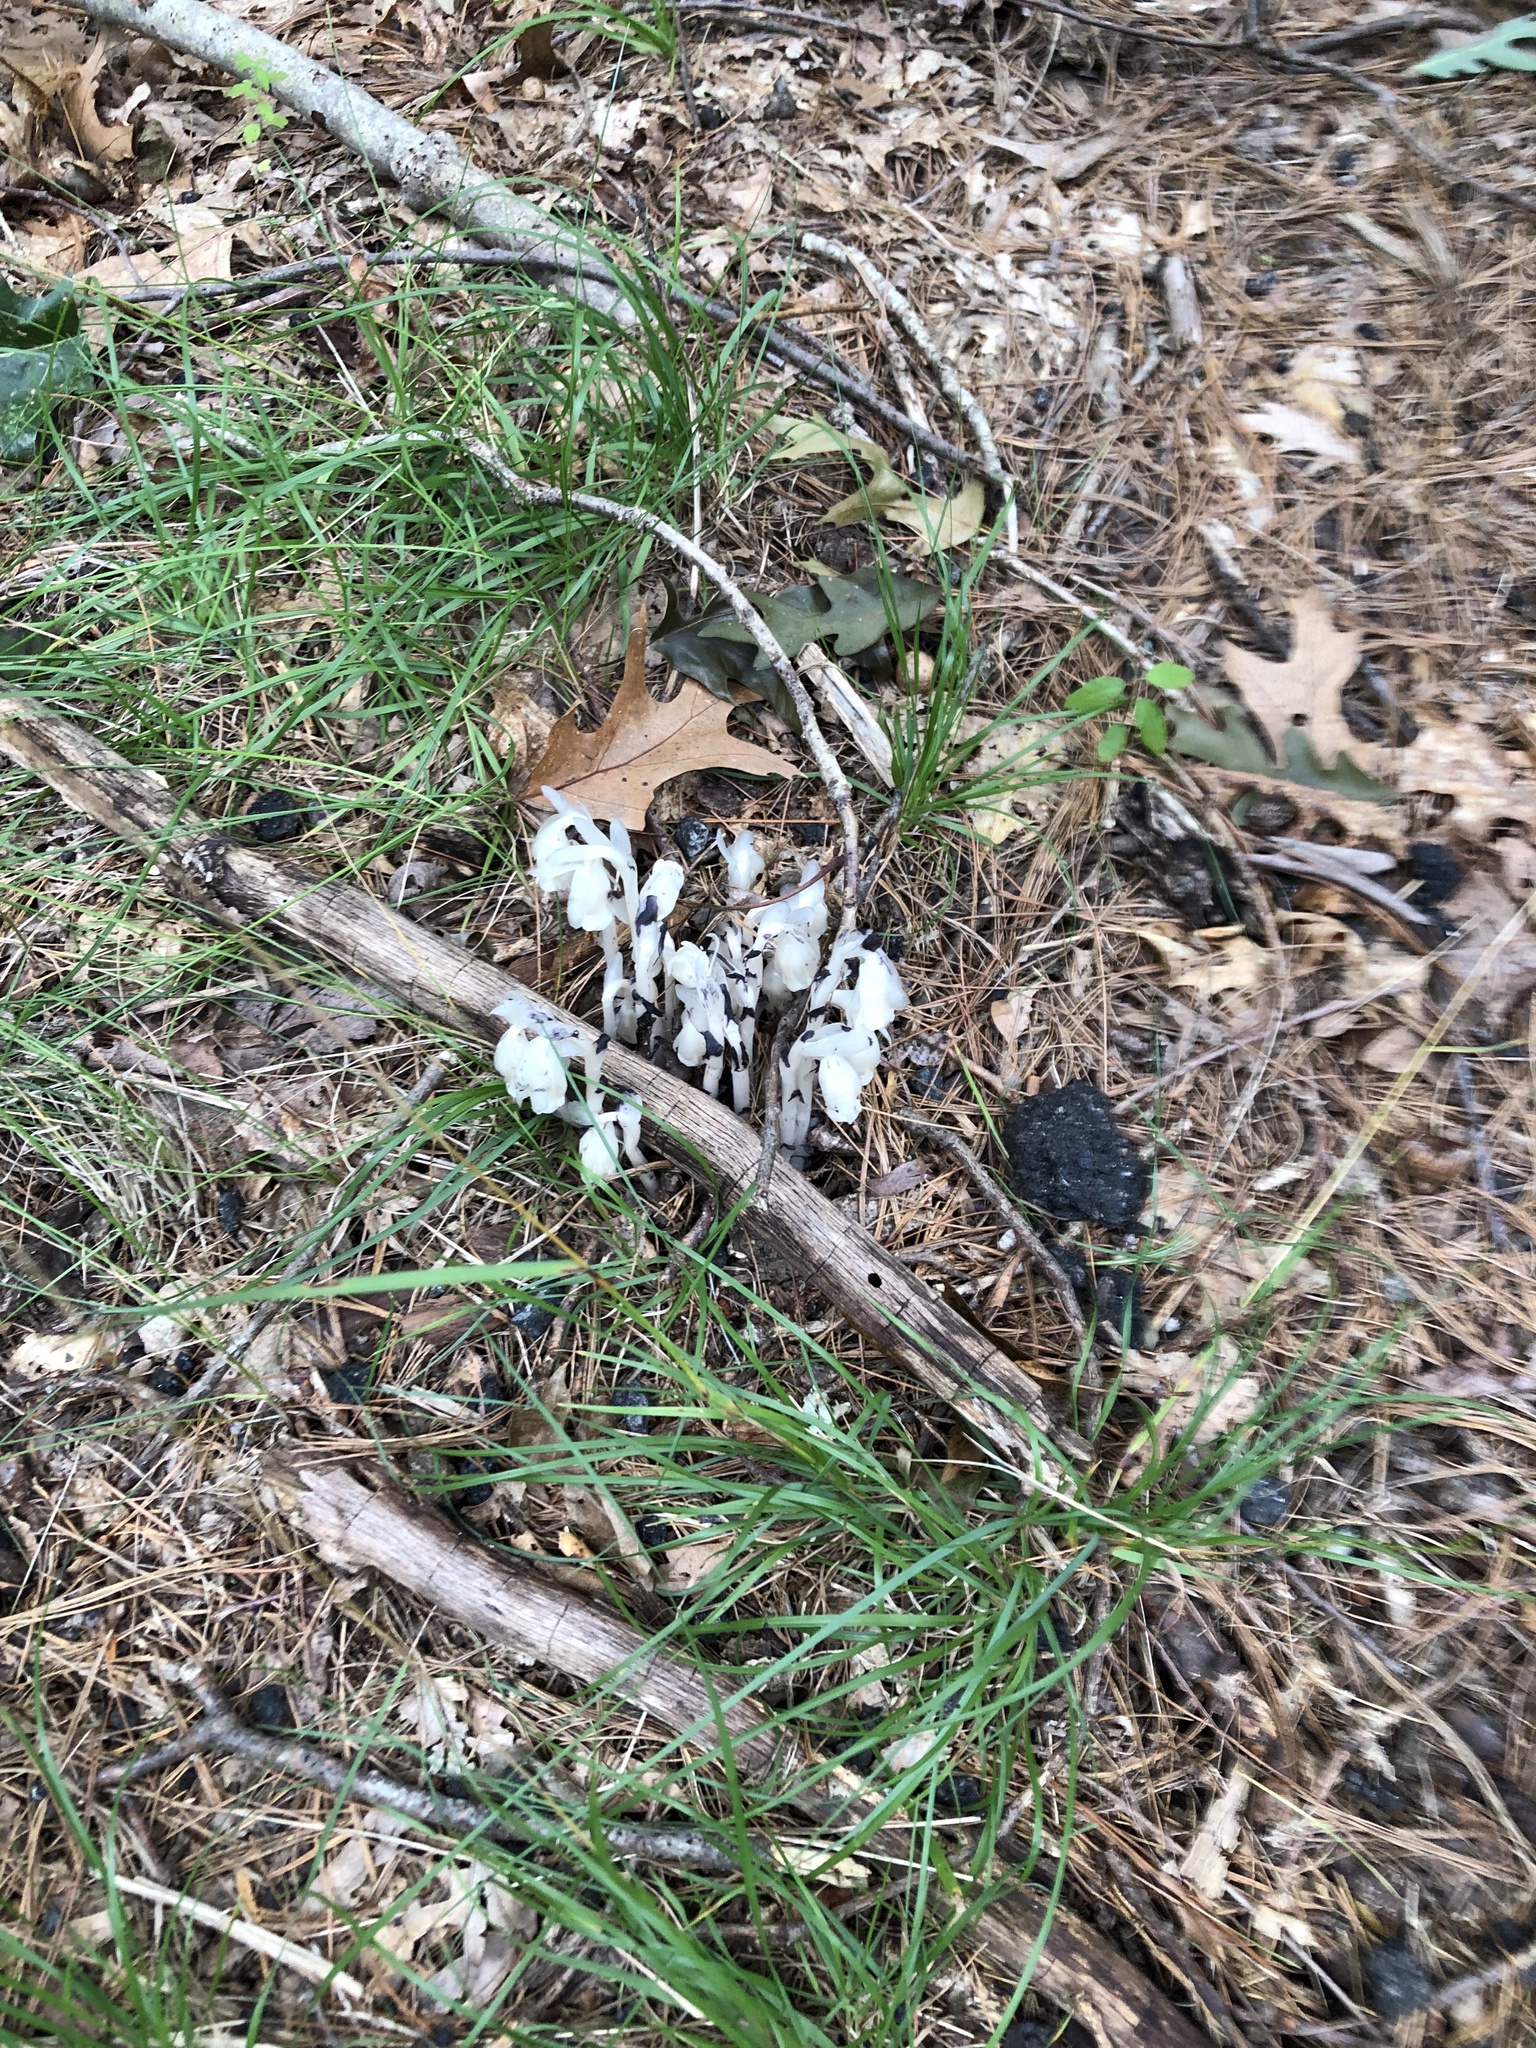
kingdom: Plantae
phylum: Tracheophyta
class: Magnoliopsida
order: Ericales
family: Ericaceae
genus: Monotropa
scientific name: Monotropa uniflora
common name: Convulsion root
